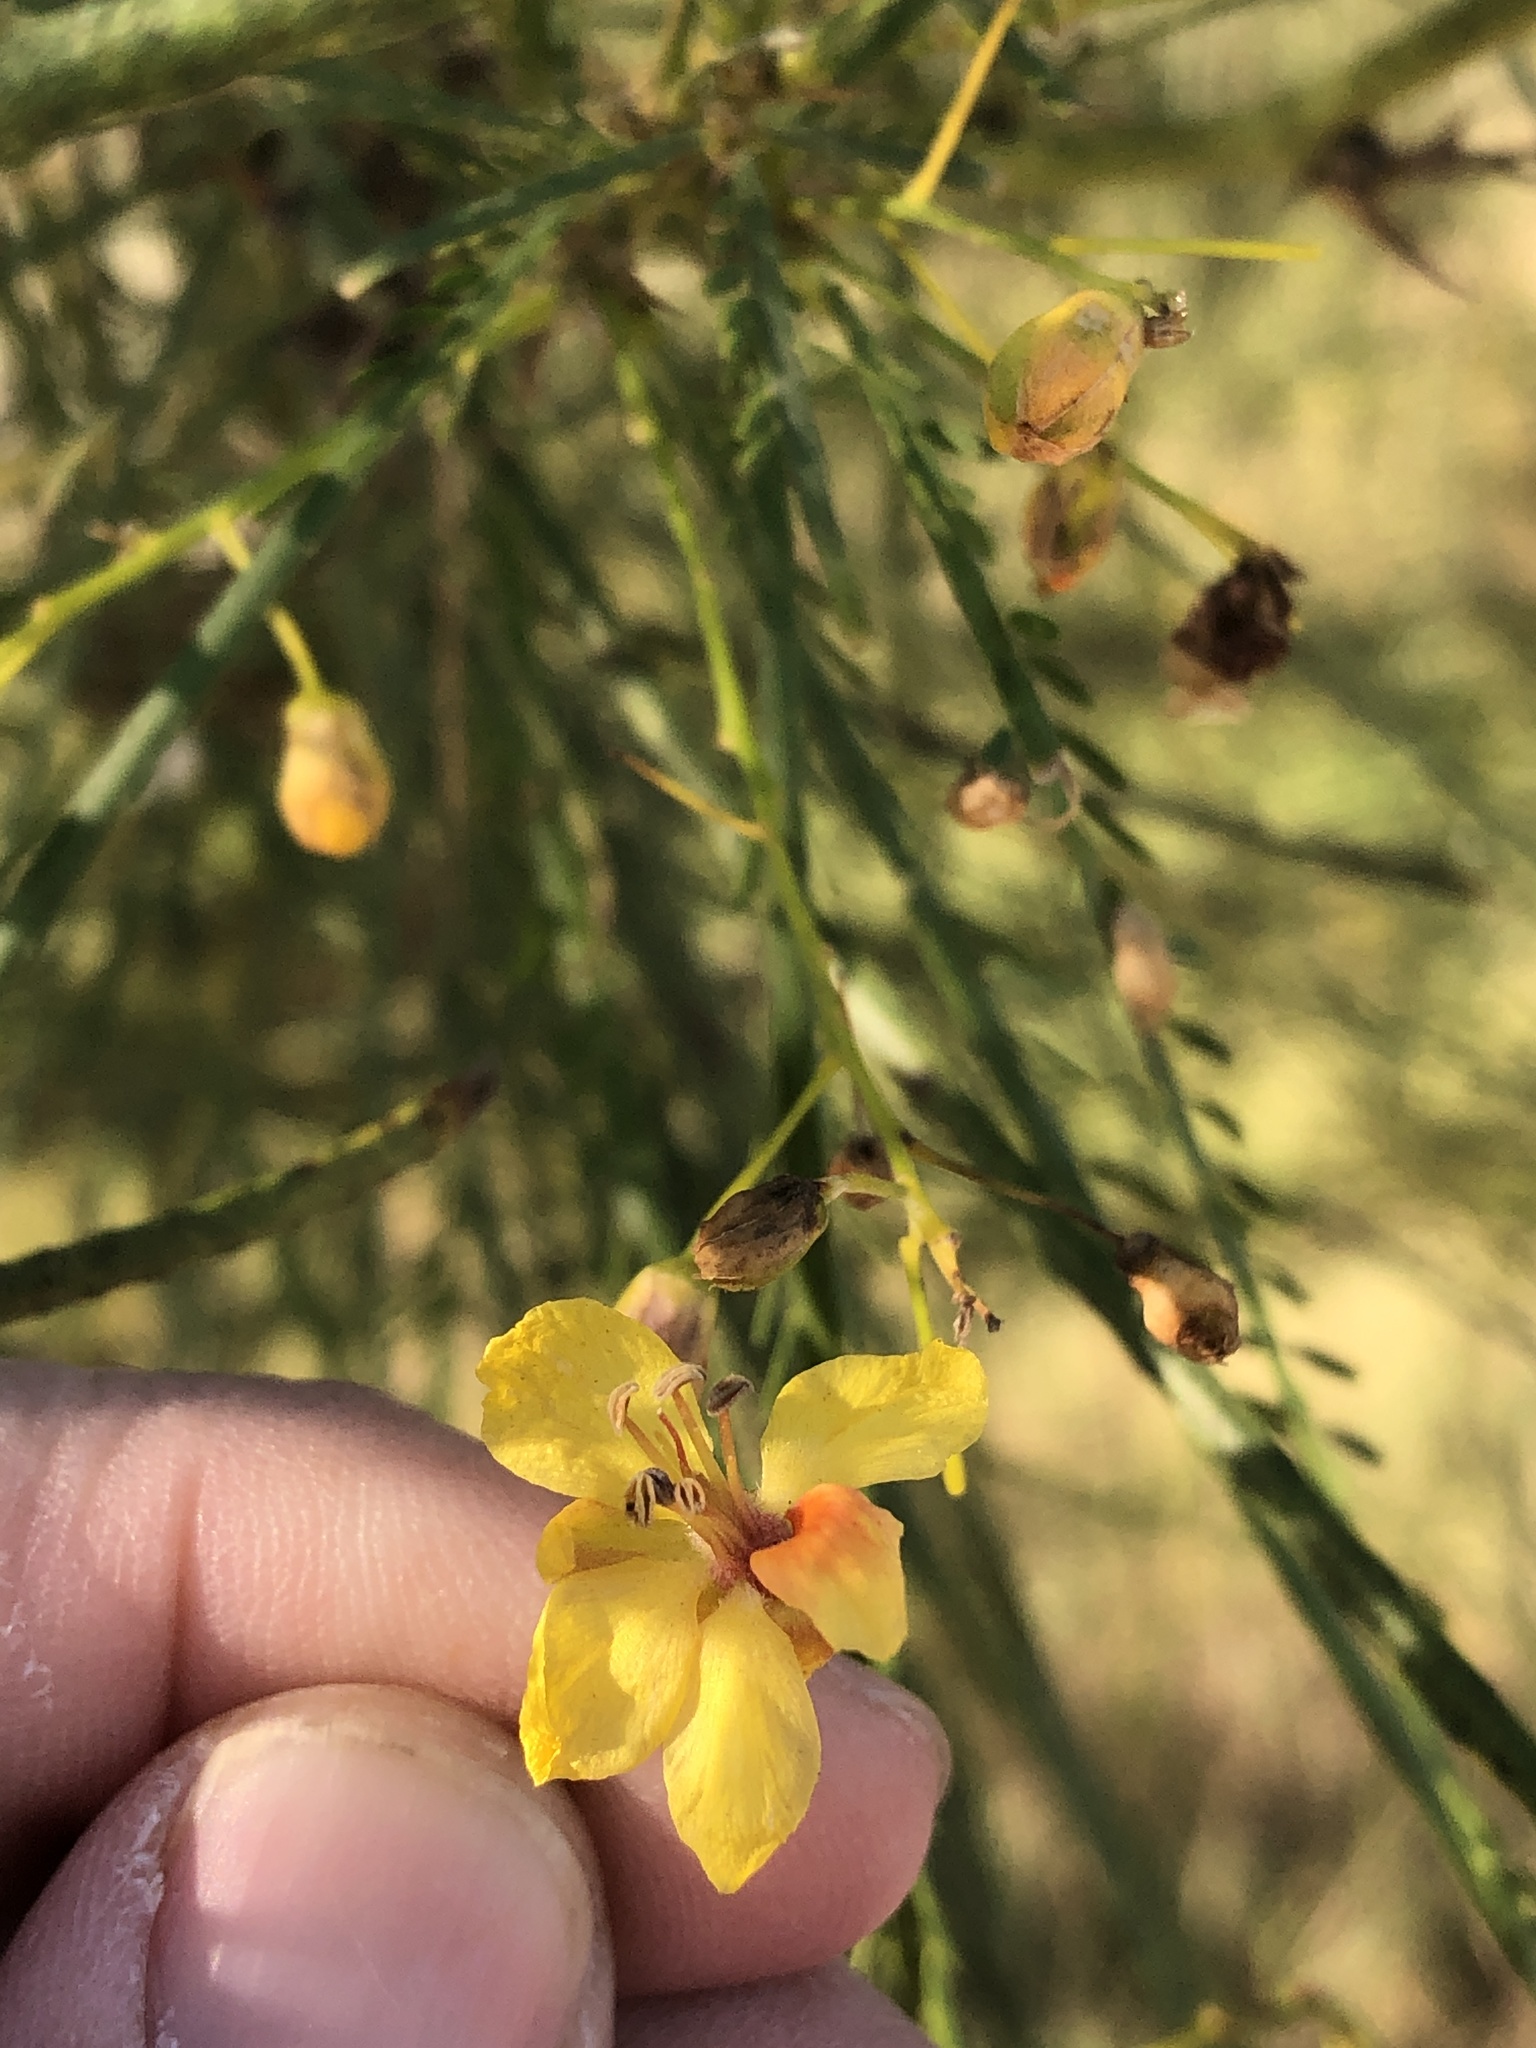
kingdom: Plantae
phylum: Tracheophyta
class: Magnoliopsida
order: Fabales
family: Fabaceae
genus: Parkinsonia
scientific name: Parkinsonia aculeata
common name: Jerusalem thorn
